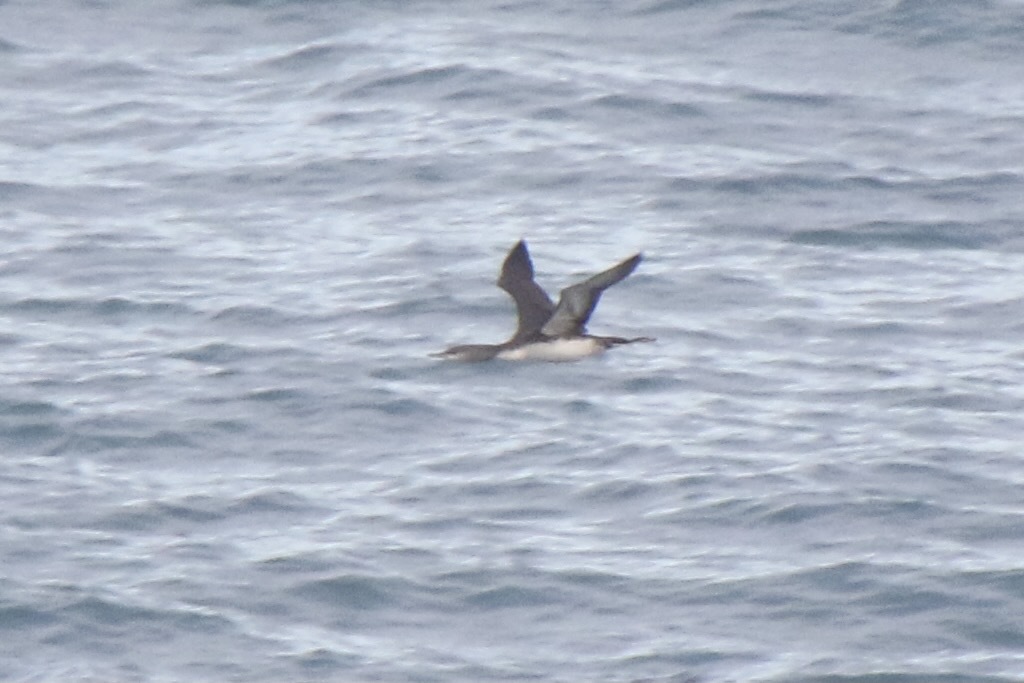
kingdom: Animalia
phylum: Chordata
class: Aves
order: Gaviiformes
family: Gaviidae
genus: Gavia
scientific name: Gavia stellata
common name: Red-throated loon
